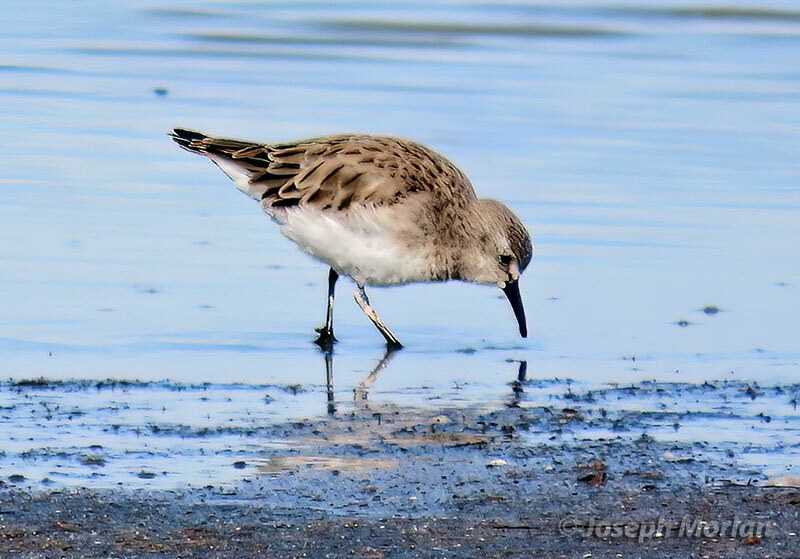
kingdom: Animalia
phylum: Chordata
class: Aves
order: Charadriiformes
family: Scolopacidae
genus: Calidris
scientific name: Calidris bairdii
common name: Baird's sandpiper
